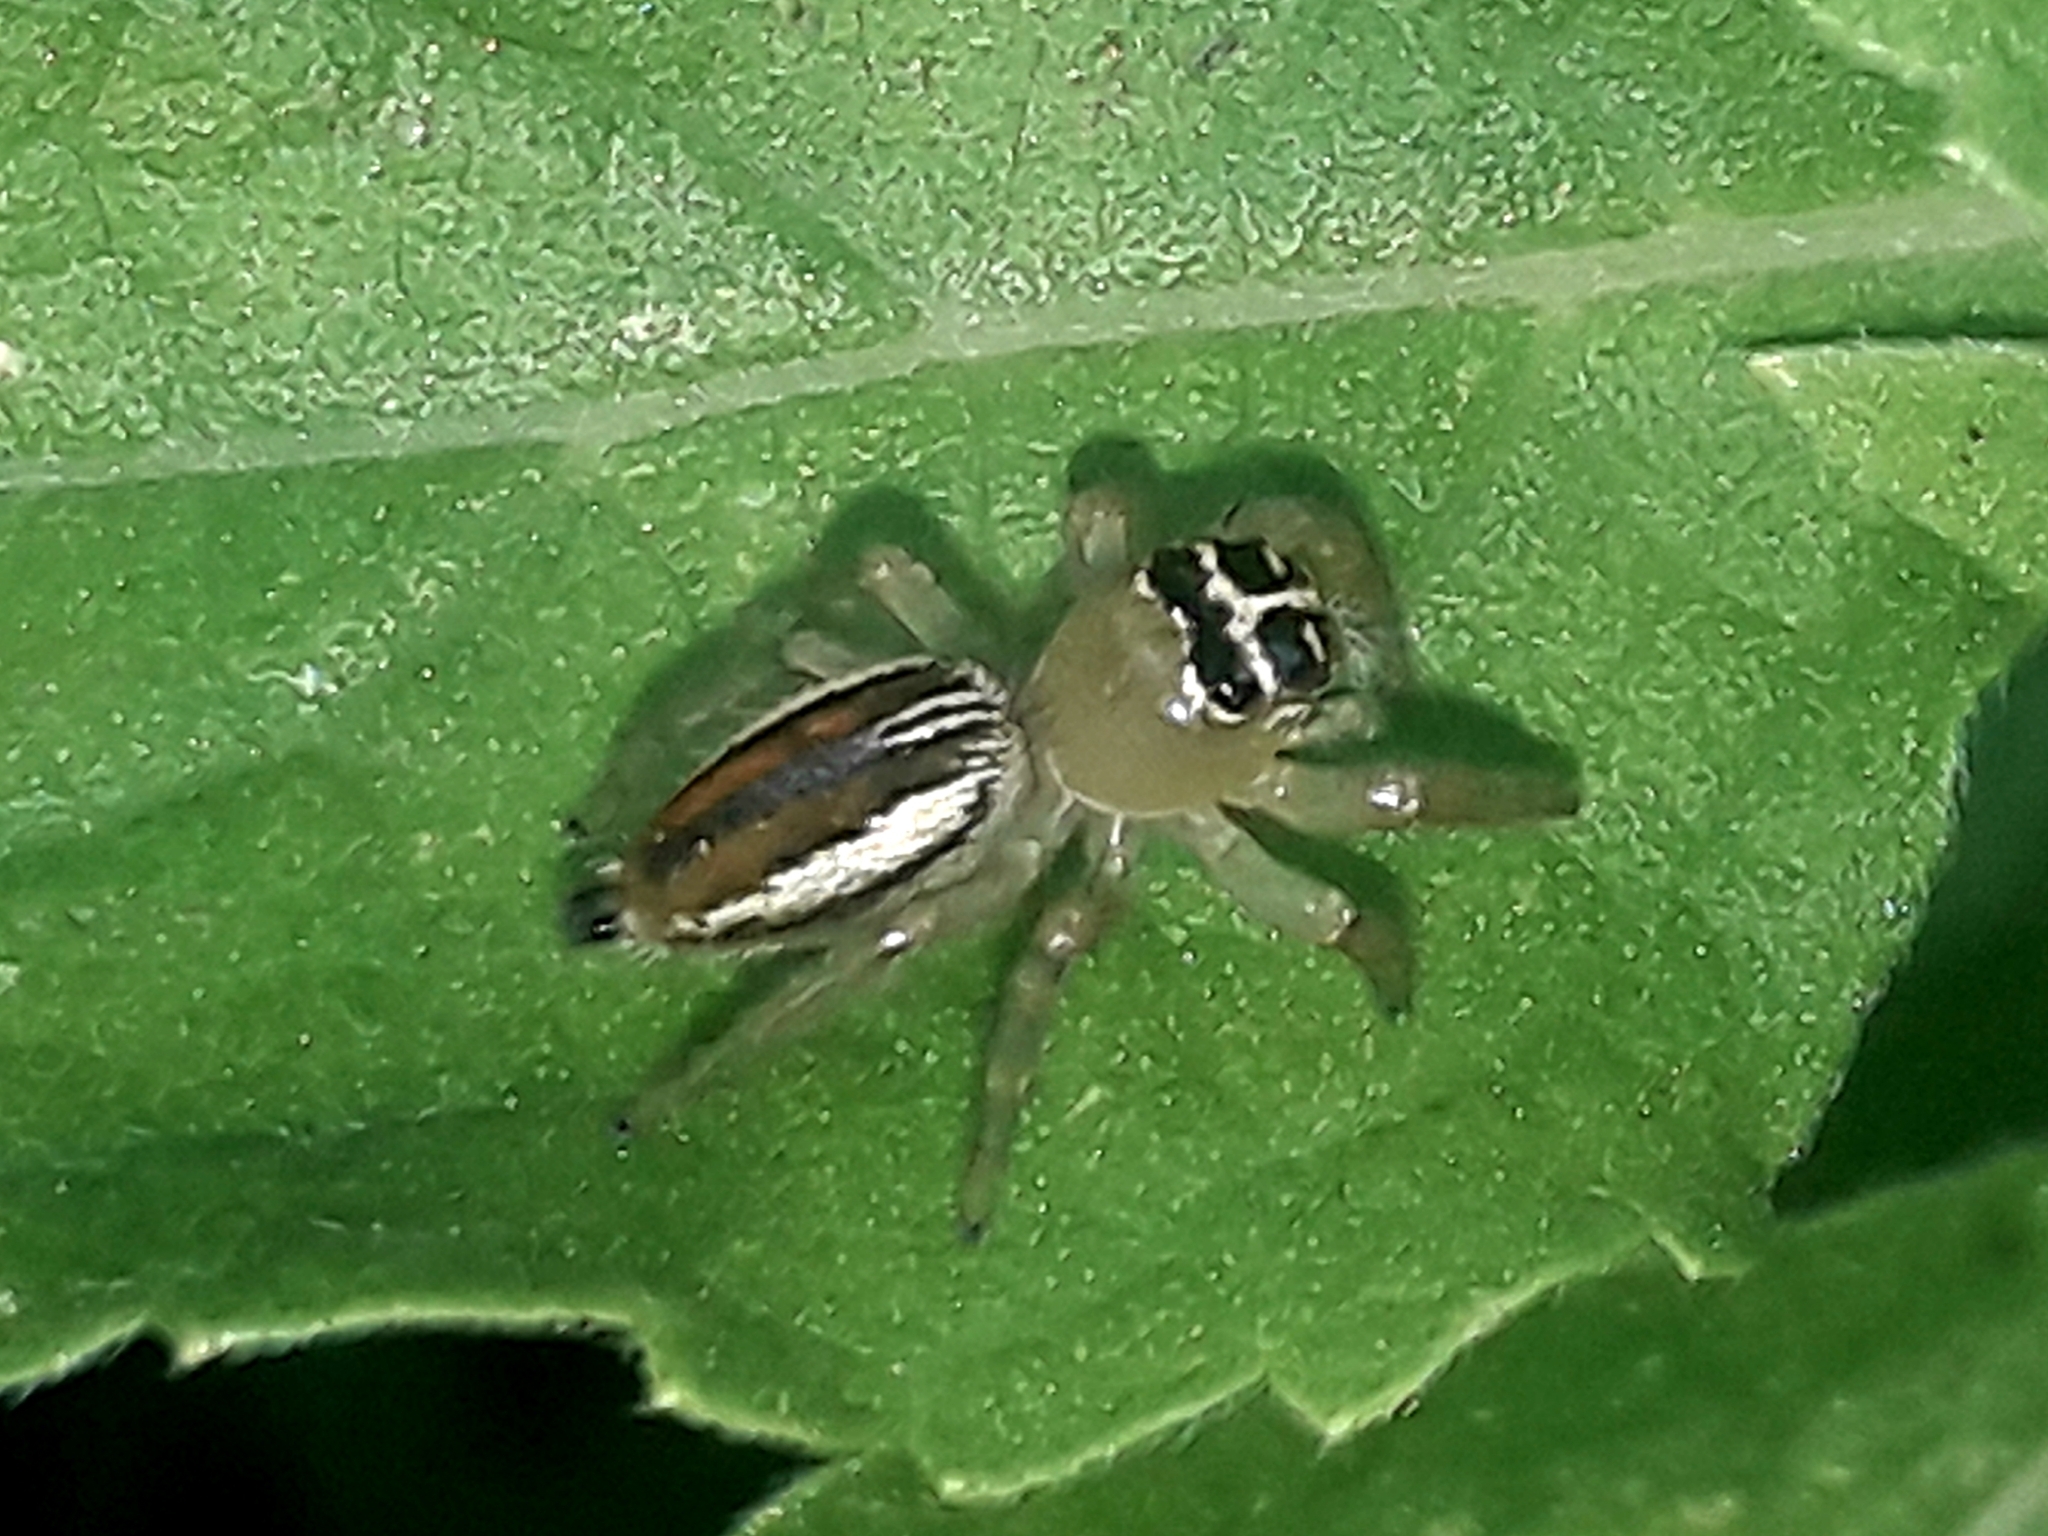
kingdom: Animalia
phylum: Arthropoda
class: Arachnida
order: Araneae
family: Salticidae
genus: Thyene
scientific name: Thyene inflata
